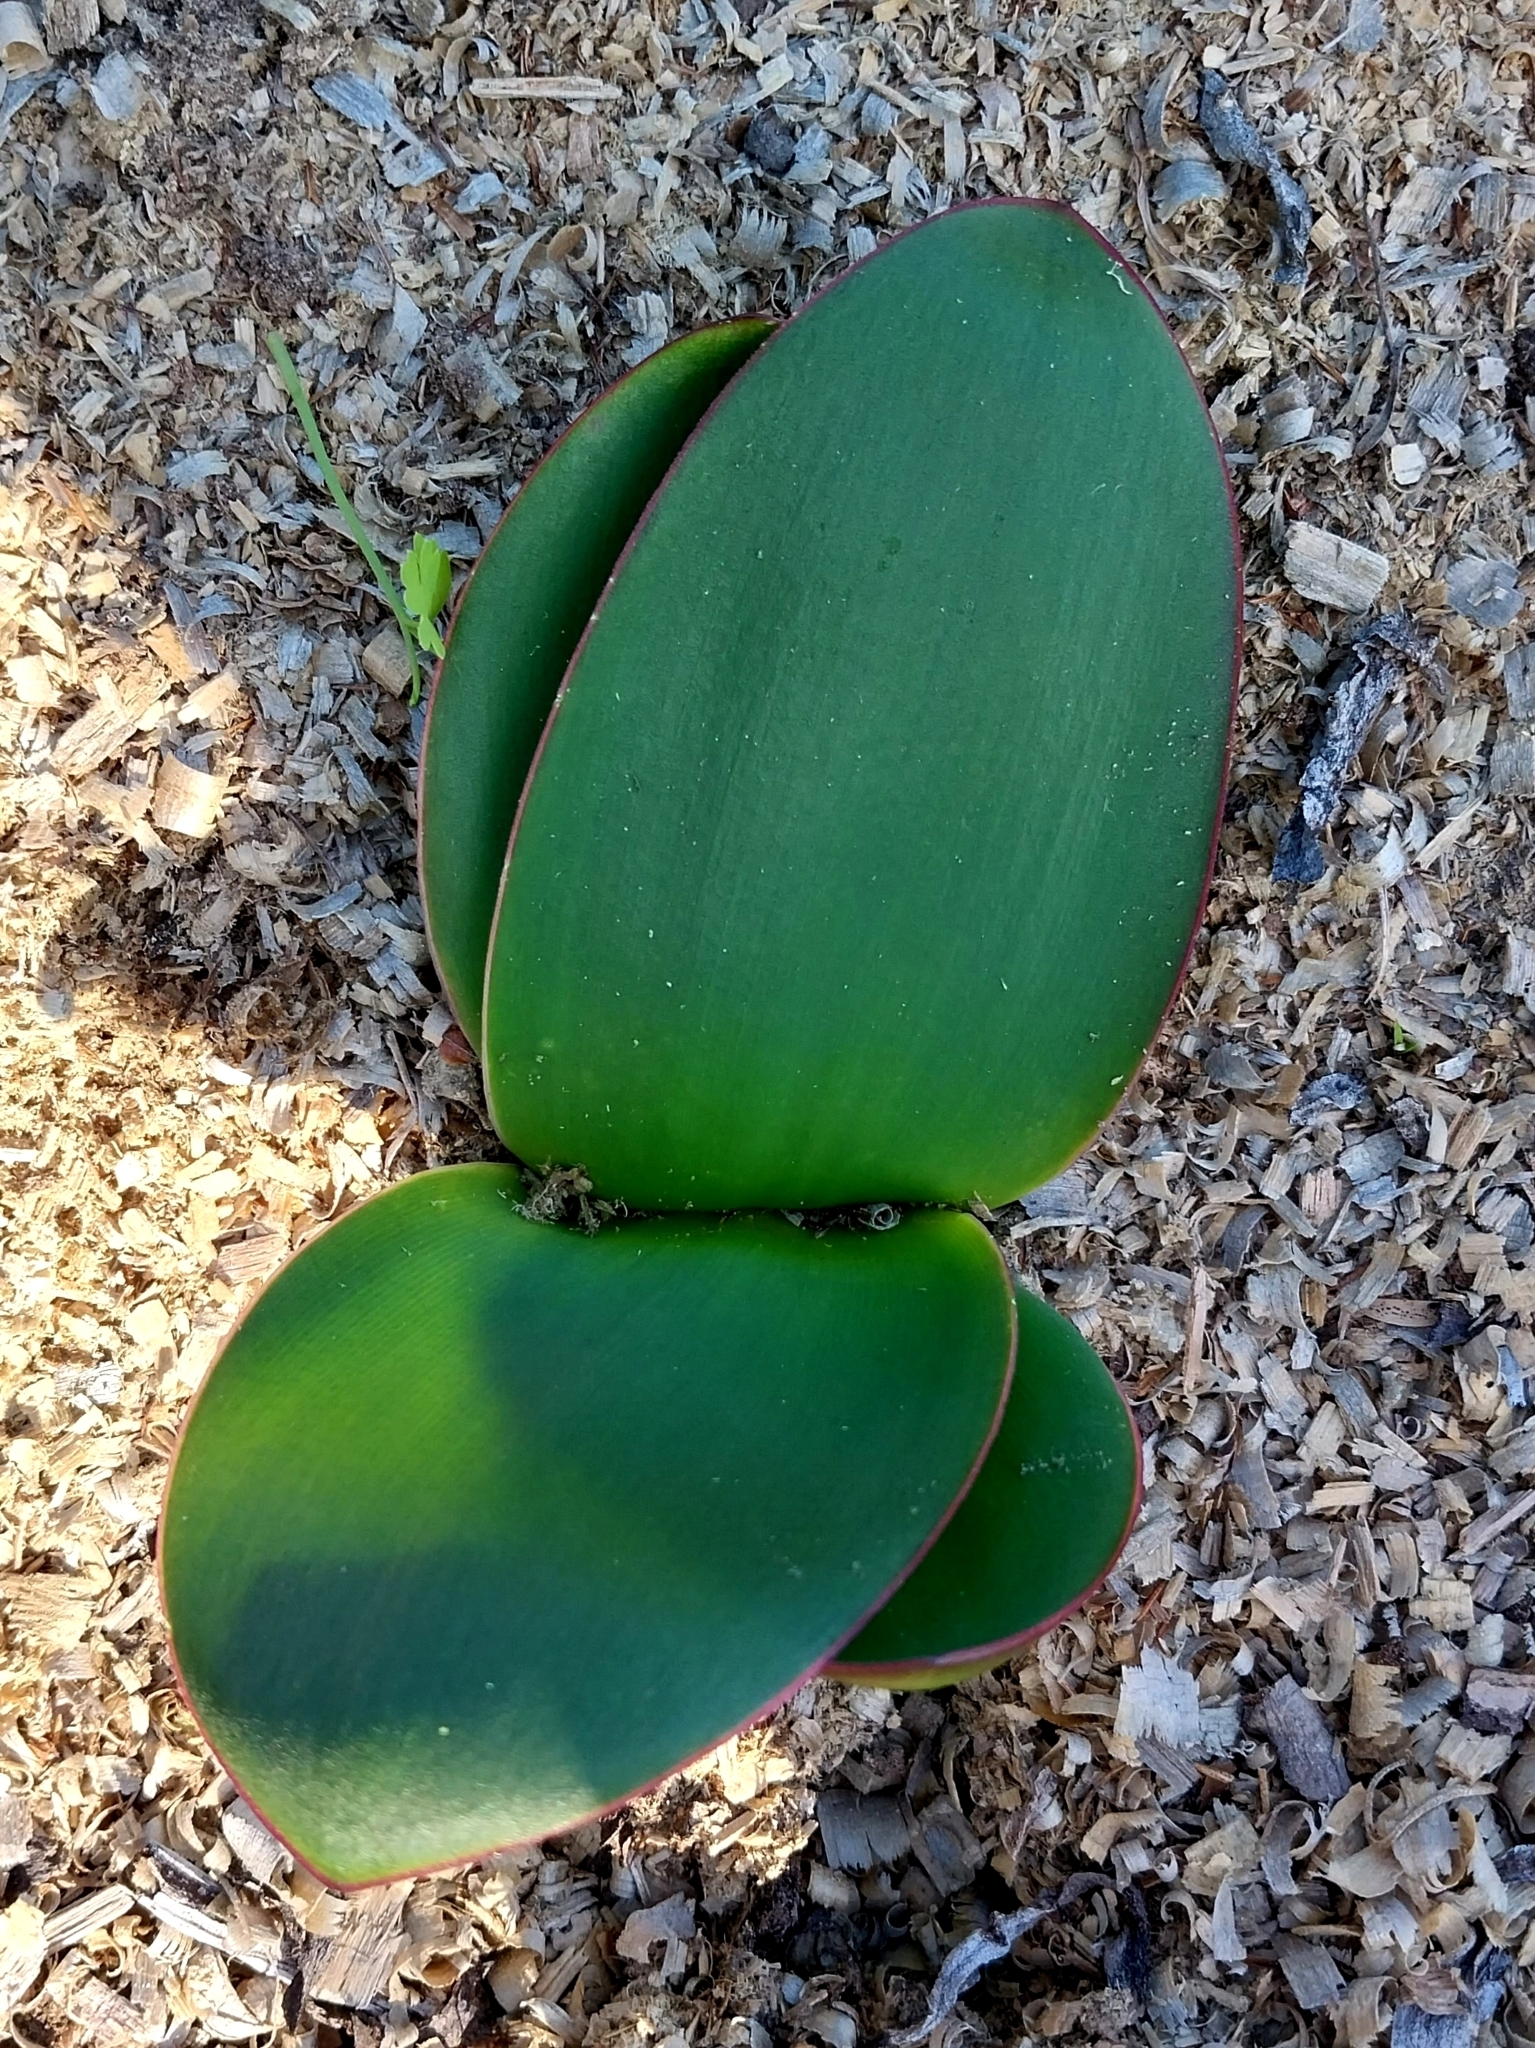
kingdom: Plantae
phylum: Tracheophyta
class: Liliopsida
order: Asparagales
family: Amaryllidaceae
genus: Brunsvigia
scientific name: Brunsvigia orientalis
